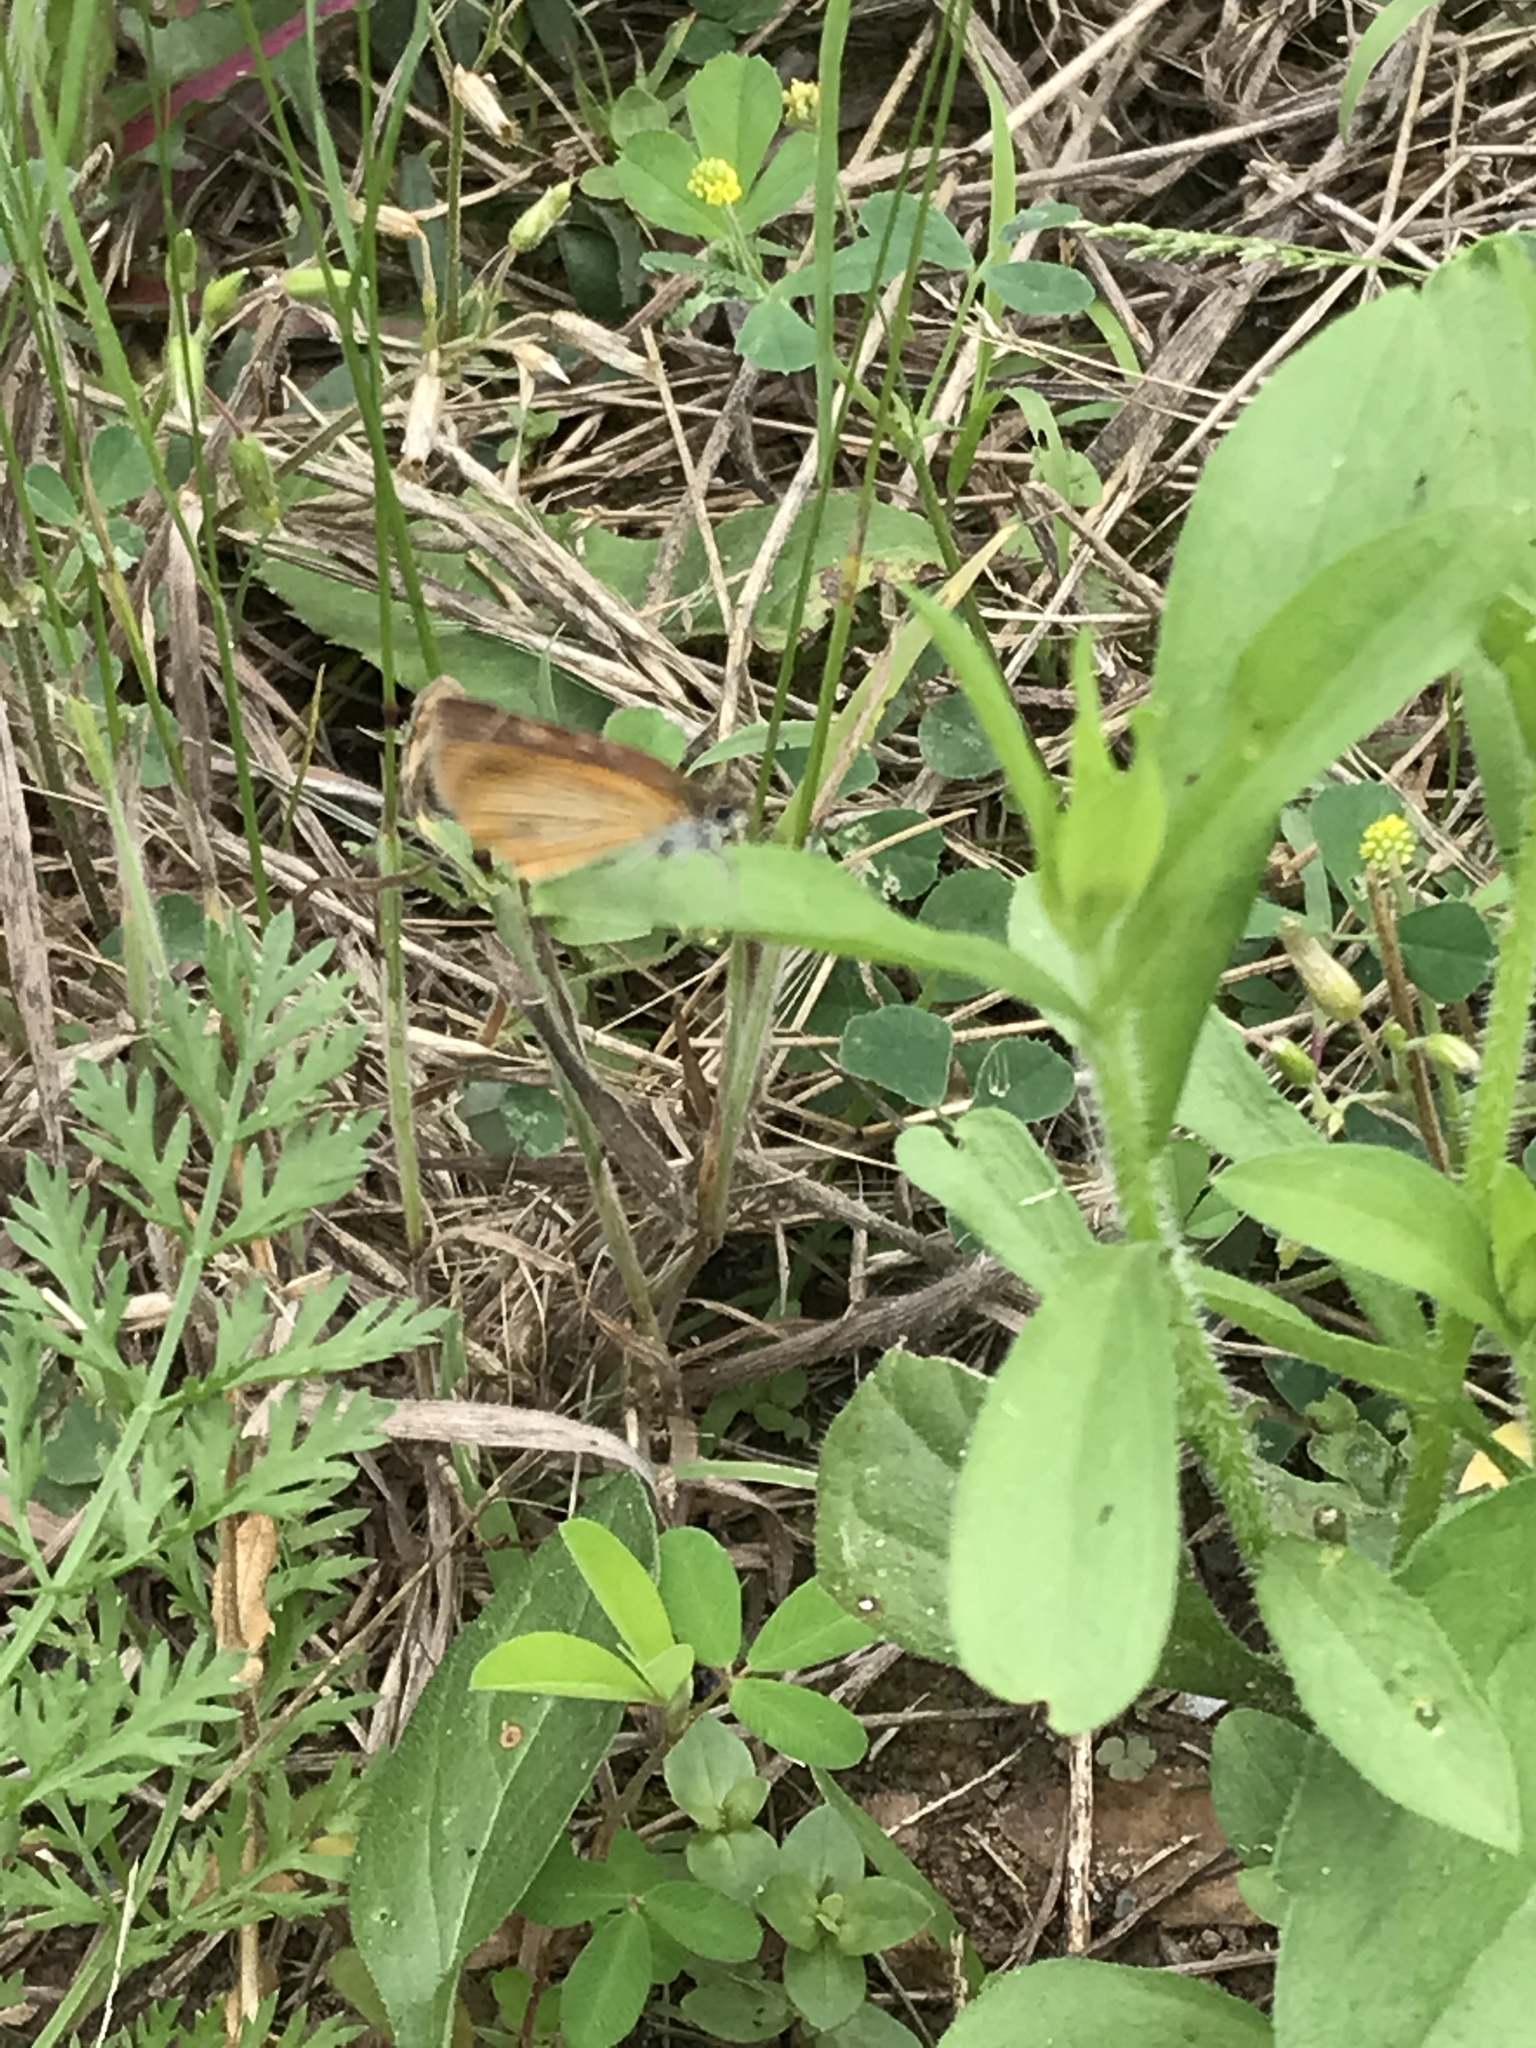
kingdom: Animalia
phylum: Arthropoda
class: Insecta
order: Lepidoptera
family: Hesperiidae
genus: Ancyloxypha
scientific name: Ancyloxypha numitor
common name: Least skipper
